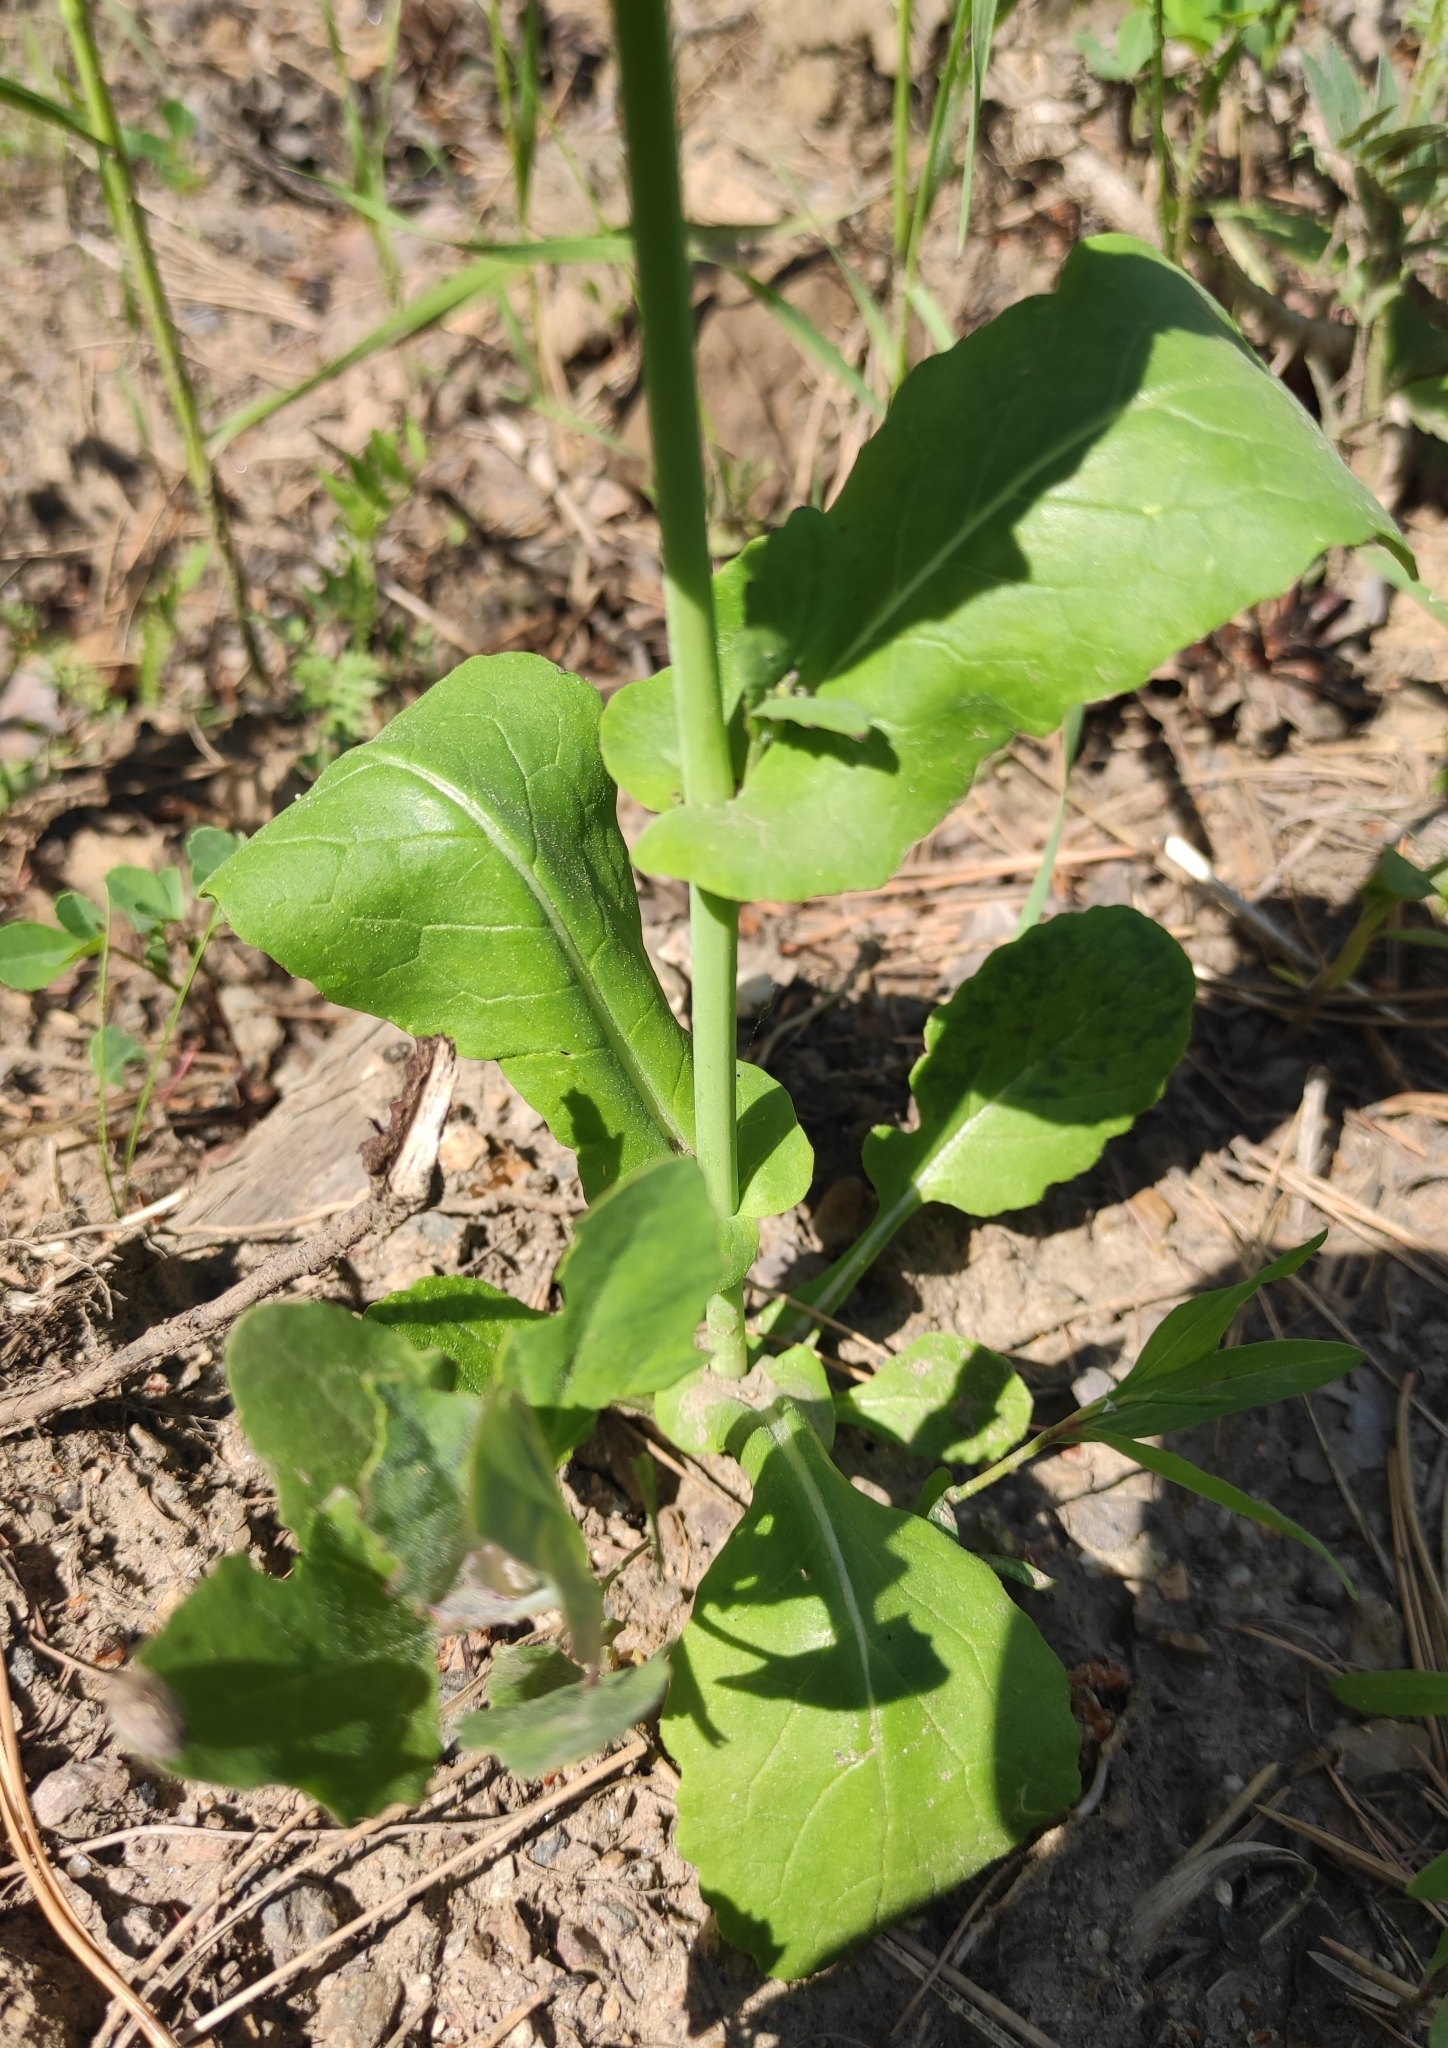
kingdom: Plantae
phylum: Tracheophyta
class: Magnoliopsida
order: Brassicales
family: Brassicaceae
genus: Brassica
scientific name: Brassica rapa
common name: Field mustard
